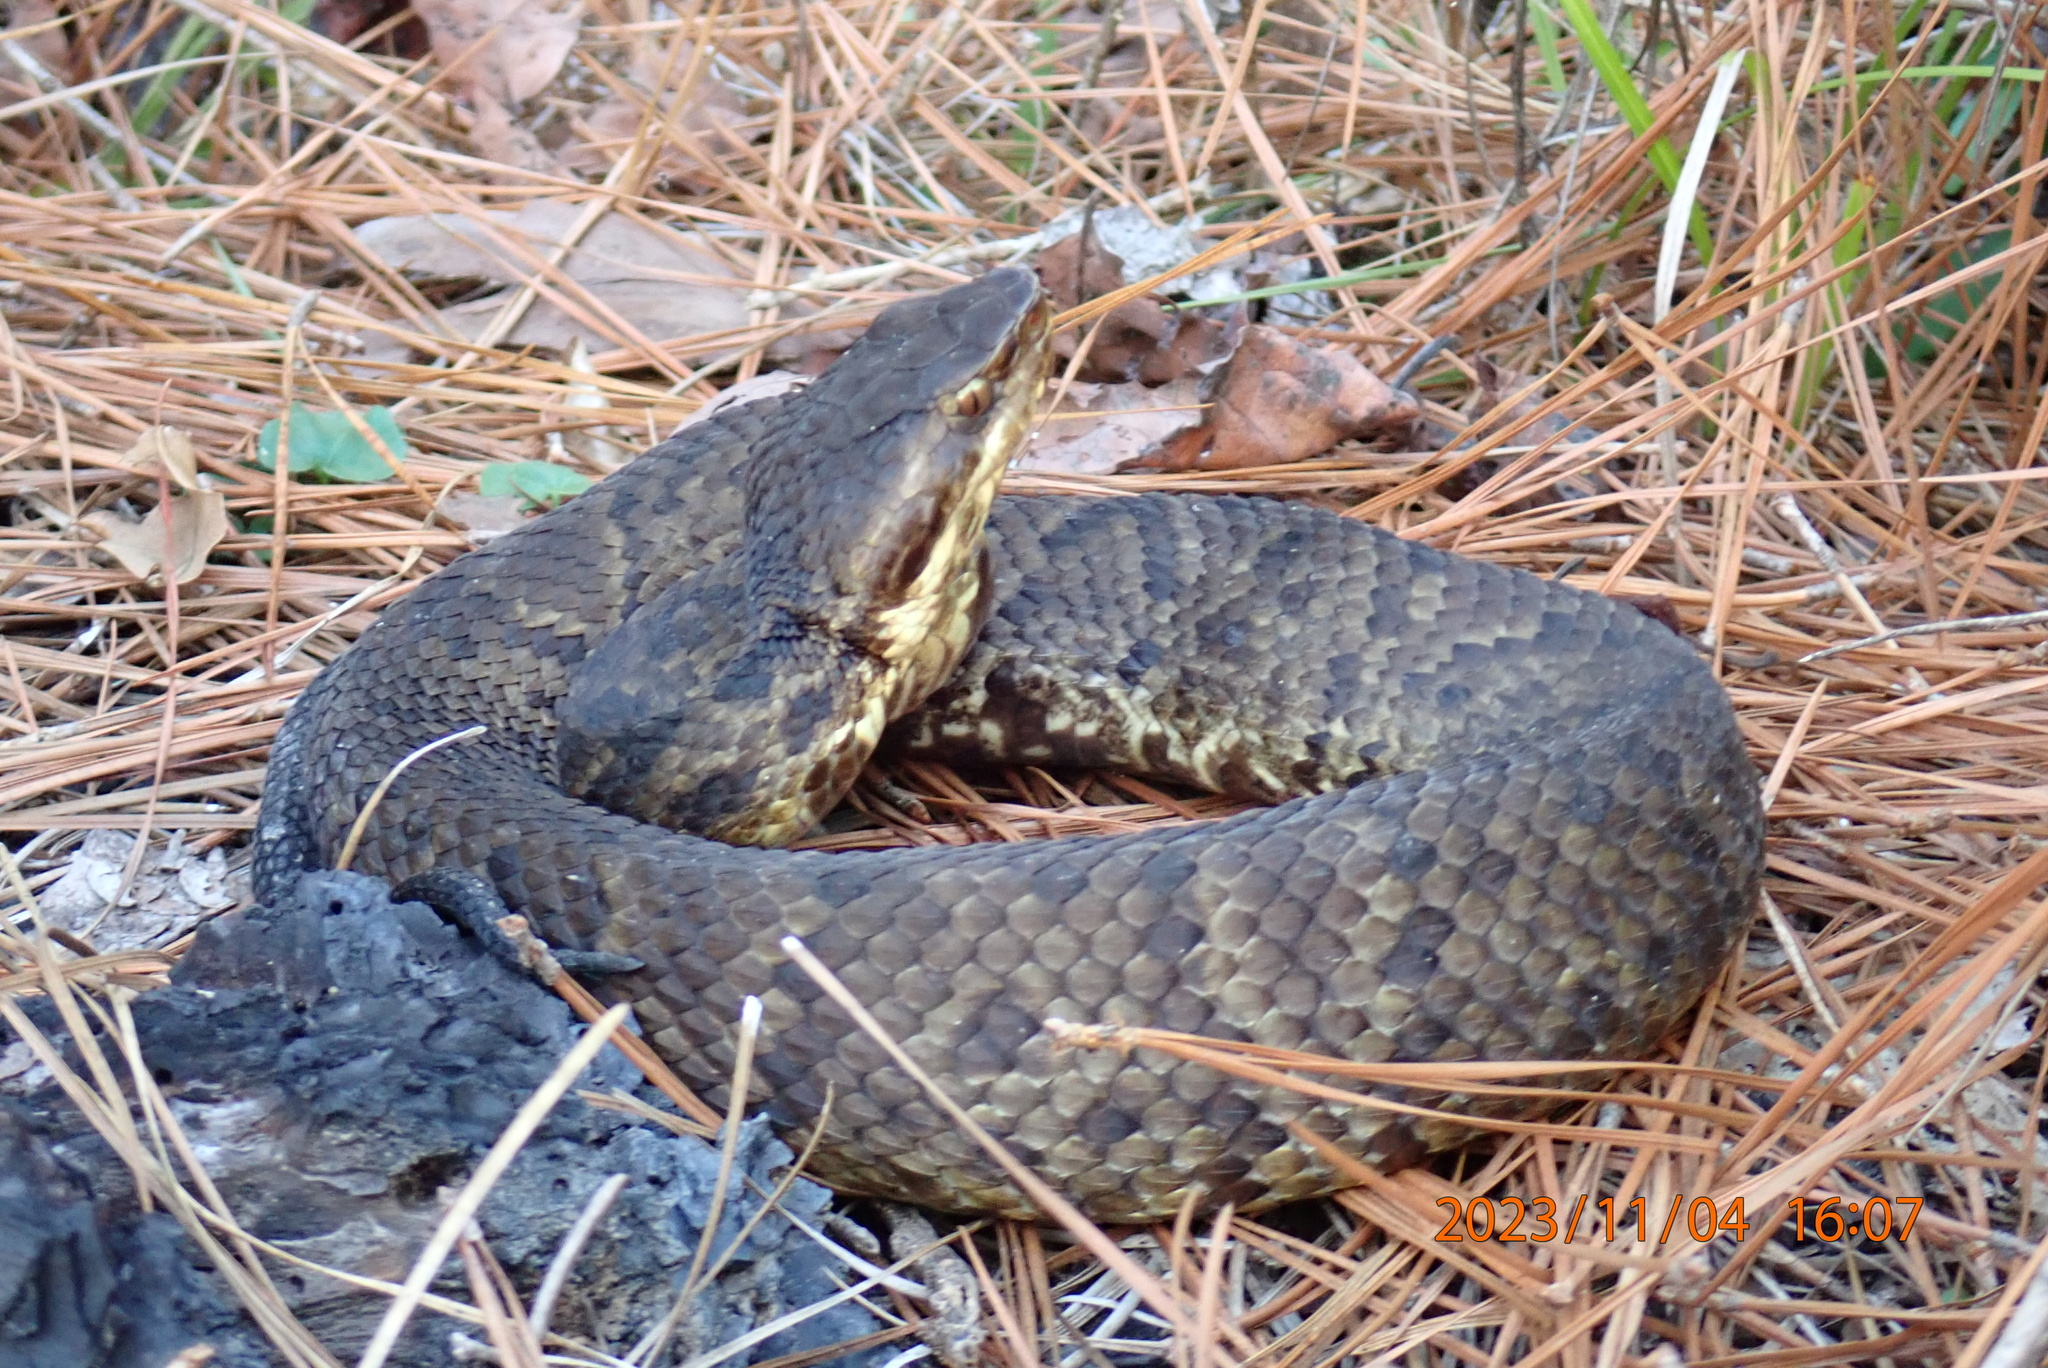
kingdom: Animalia
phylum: Chordata
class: Squamata
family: Viperidae
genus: Agkistrodon
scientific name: Agkistrodon piscivorus
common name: Cottonmouth
